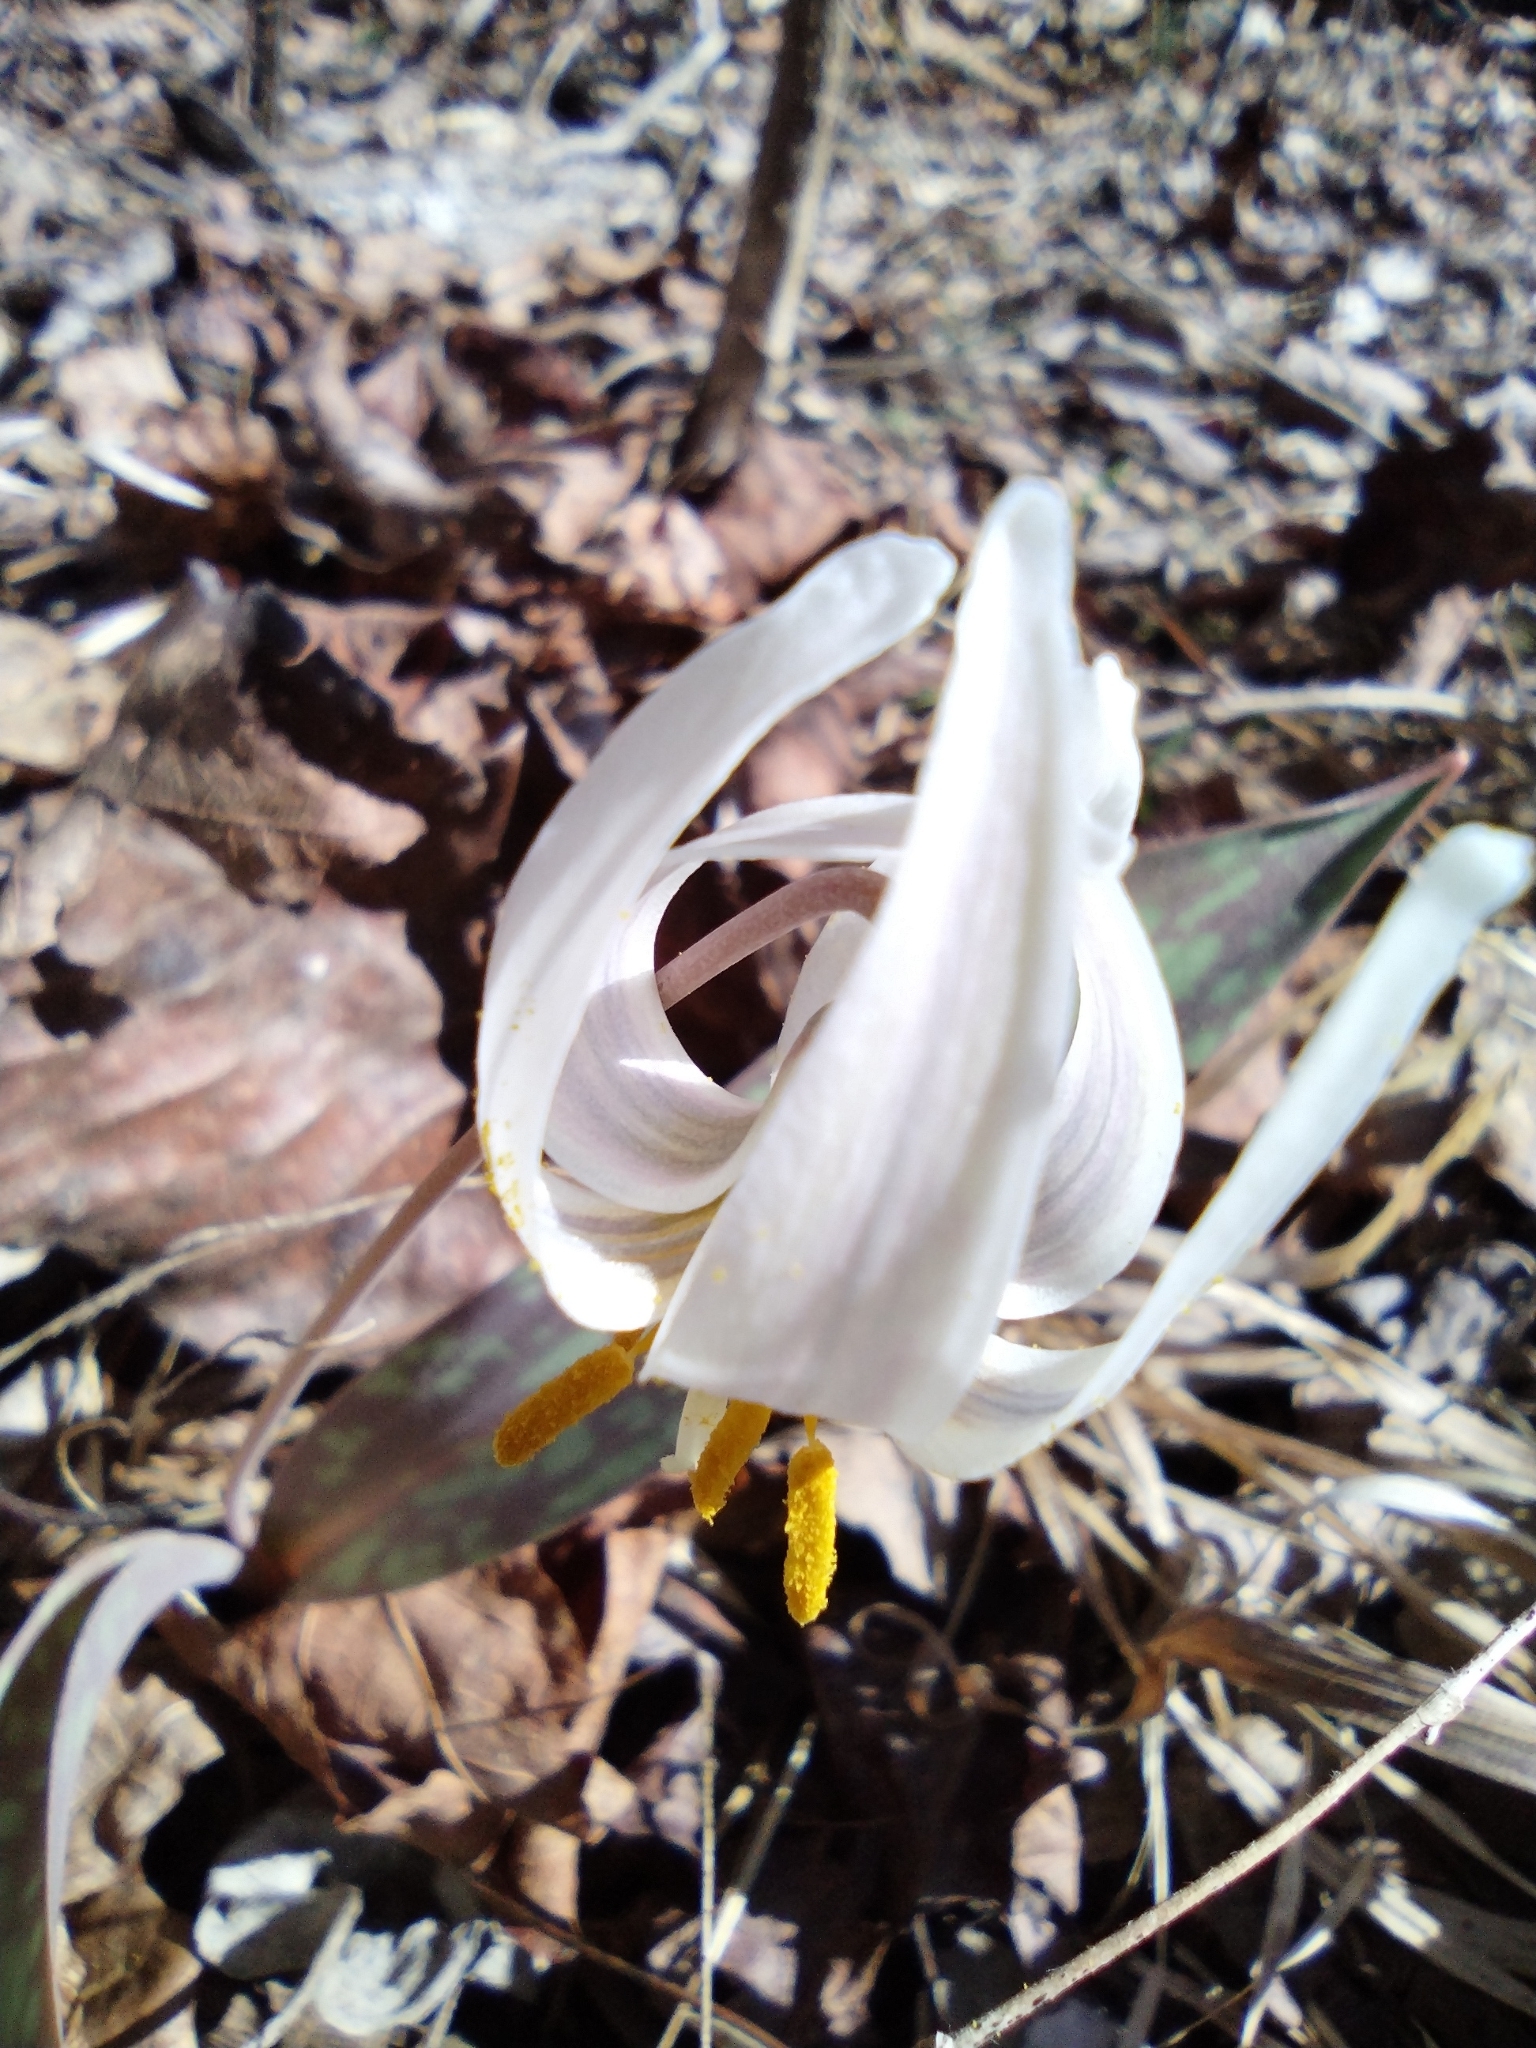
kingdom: Plantae
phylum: Tracheophyta
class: Liliopsida
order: Liliales
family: Liliaceae
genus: Erythronium
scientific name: Erythronium albidum
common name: White trout-lily
